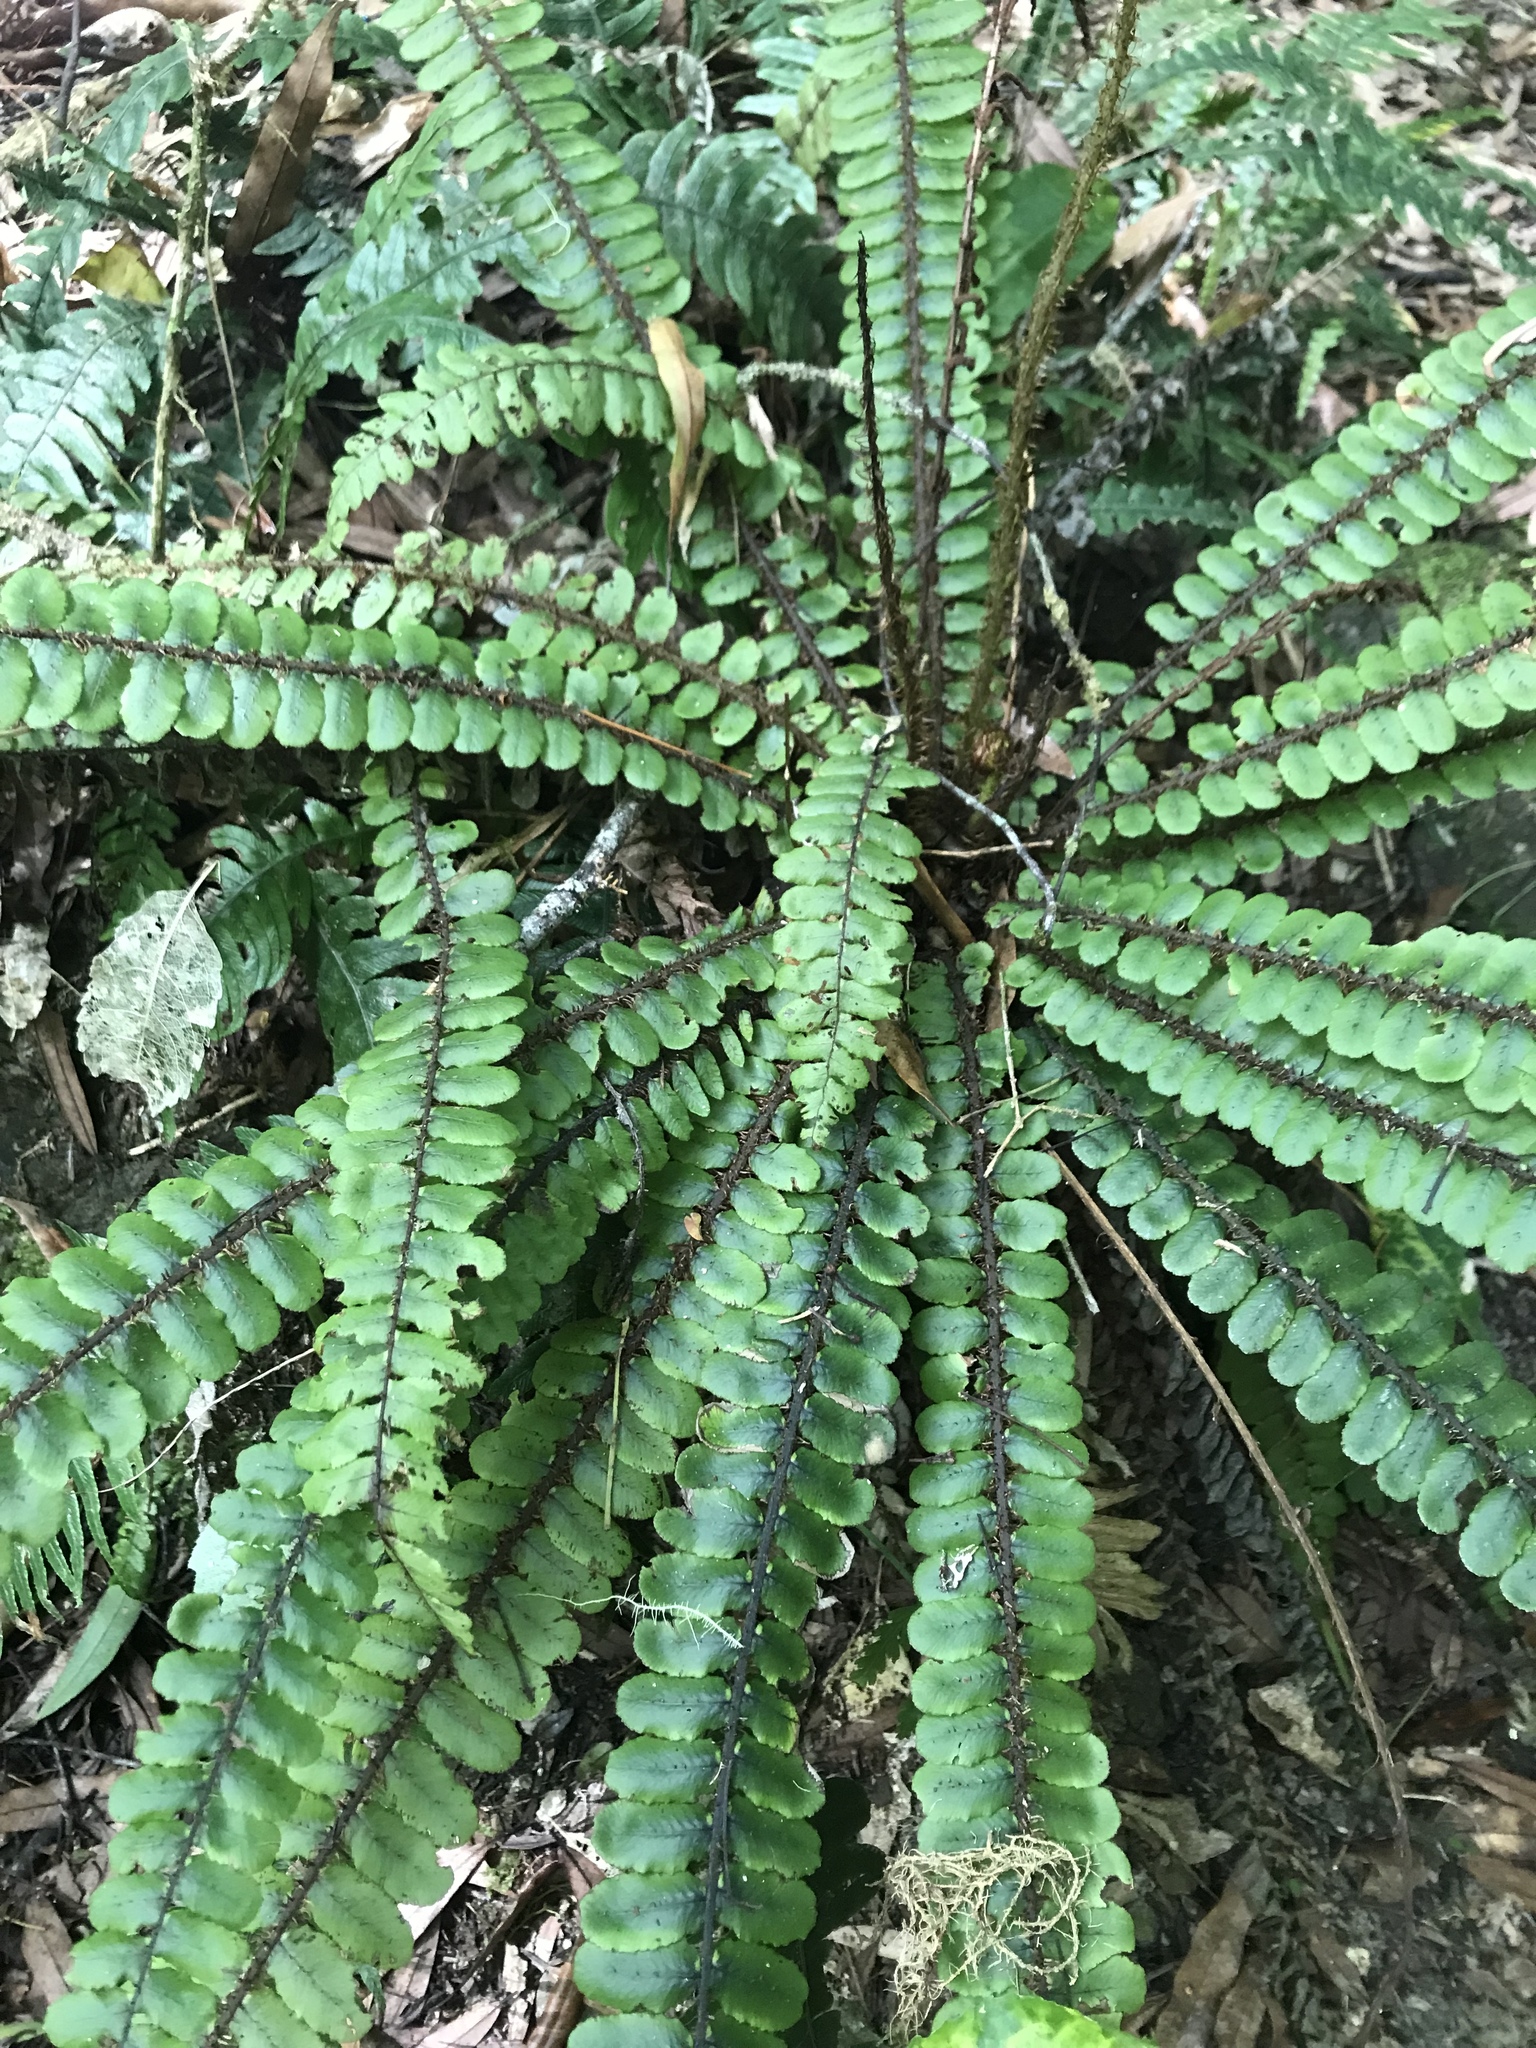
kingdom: Plantae
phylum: Tracheophyta
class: Polypodiopsida
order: Polypodiales
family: Blechnaceae
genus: Cranfillia
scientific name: Cranfillia fluviatilis
